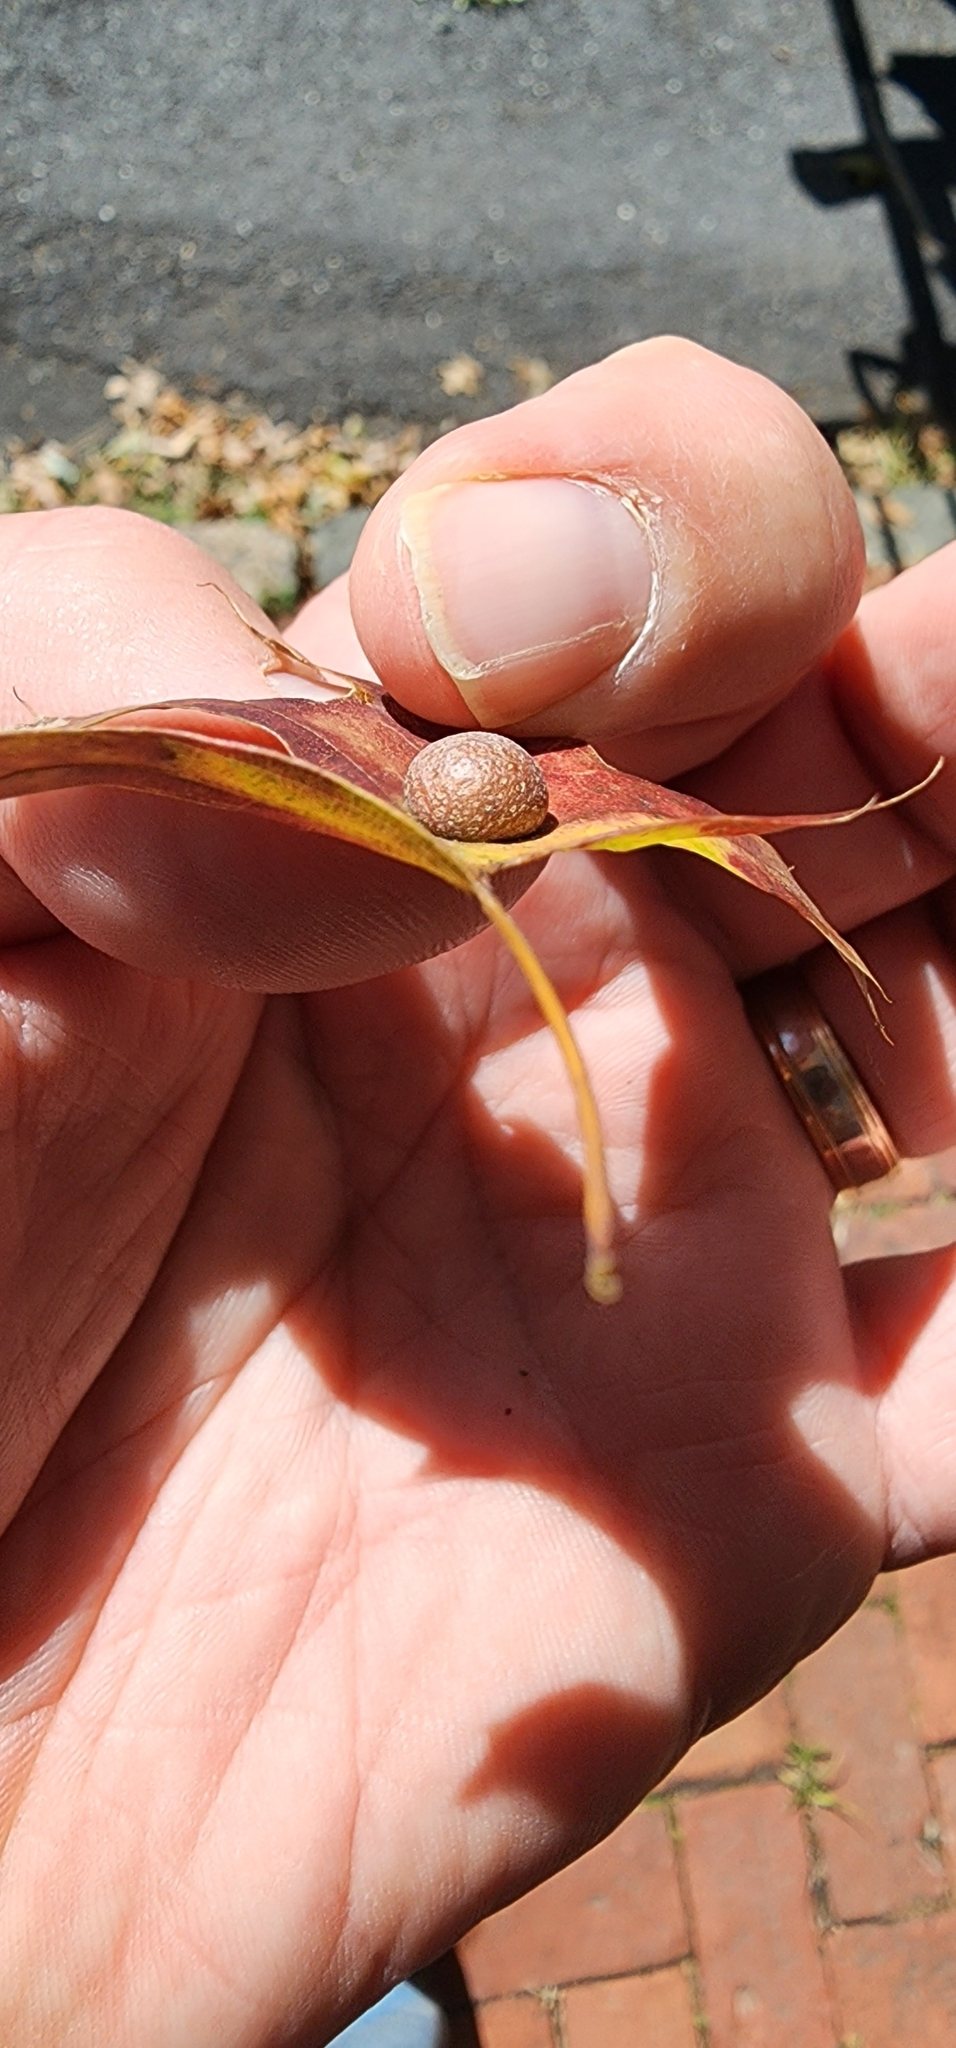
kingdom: Animalia
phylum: Arthropoda
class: Insecta
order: Diptera
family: Cecidomyiidae
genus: Polystepha
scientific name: Polystepha pilulae
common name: Oak leaf gall midge
